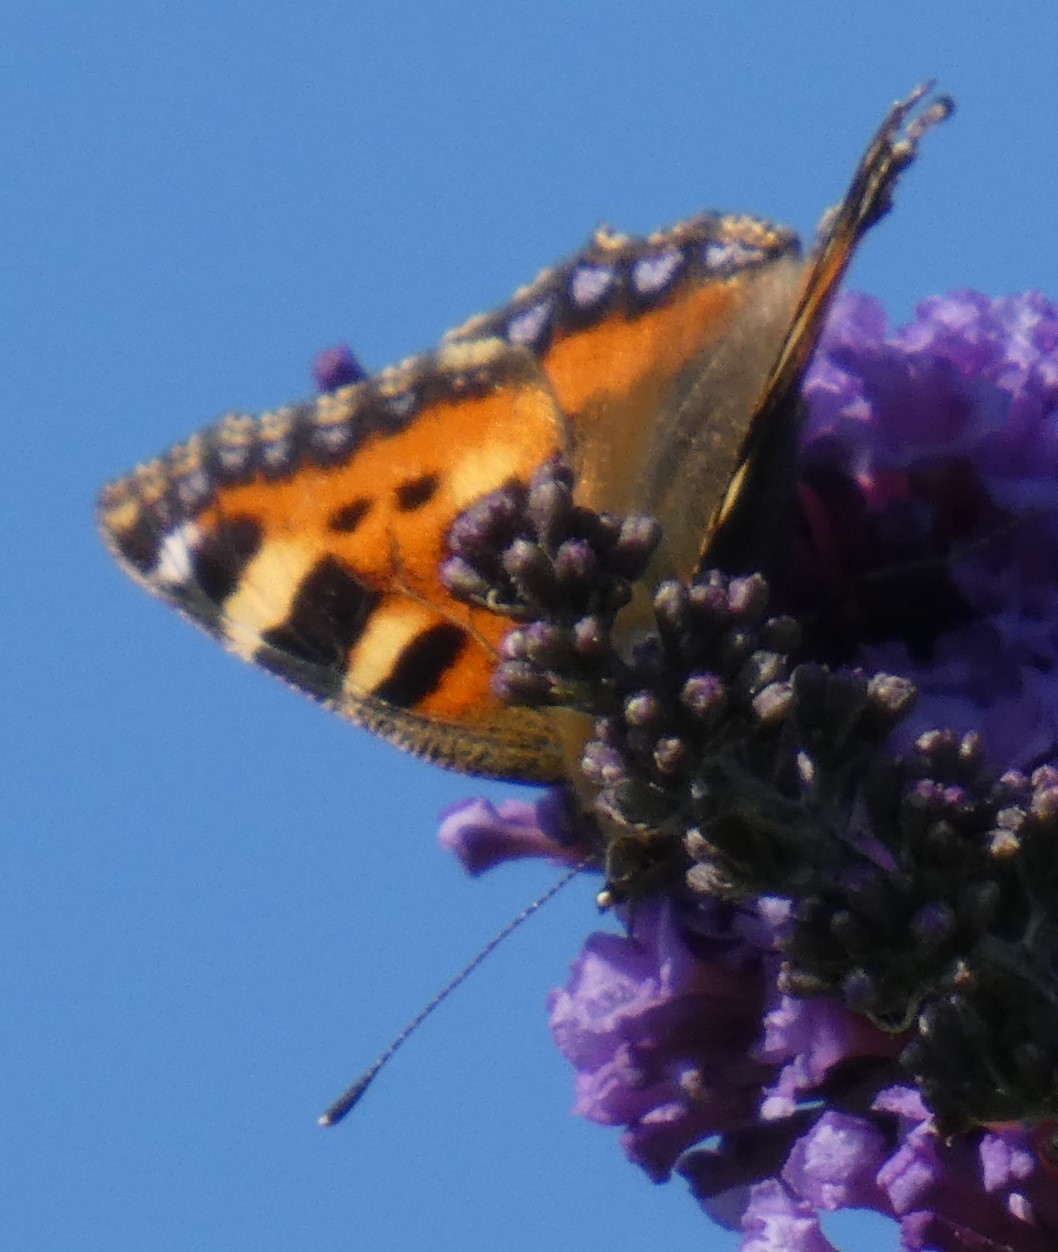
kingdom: Animalia
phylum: Arthropoda
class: Insecta
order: Lepidoptera
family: Nymphalidae
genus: Aglais
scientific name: Aglais urticae
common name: Small tortoiseshell
